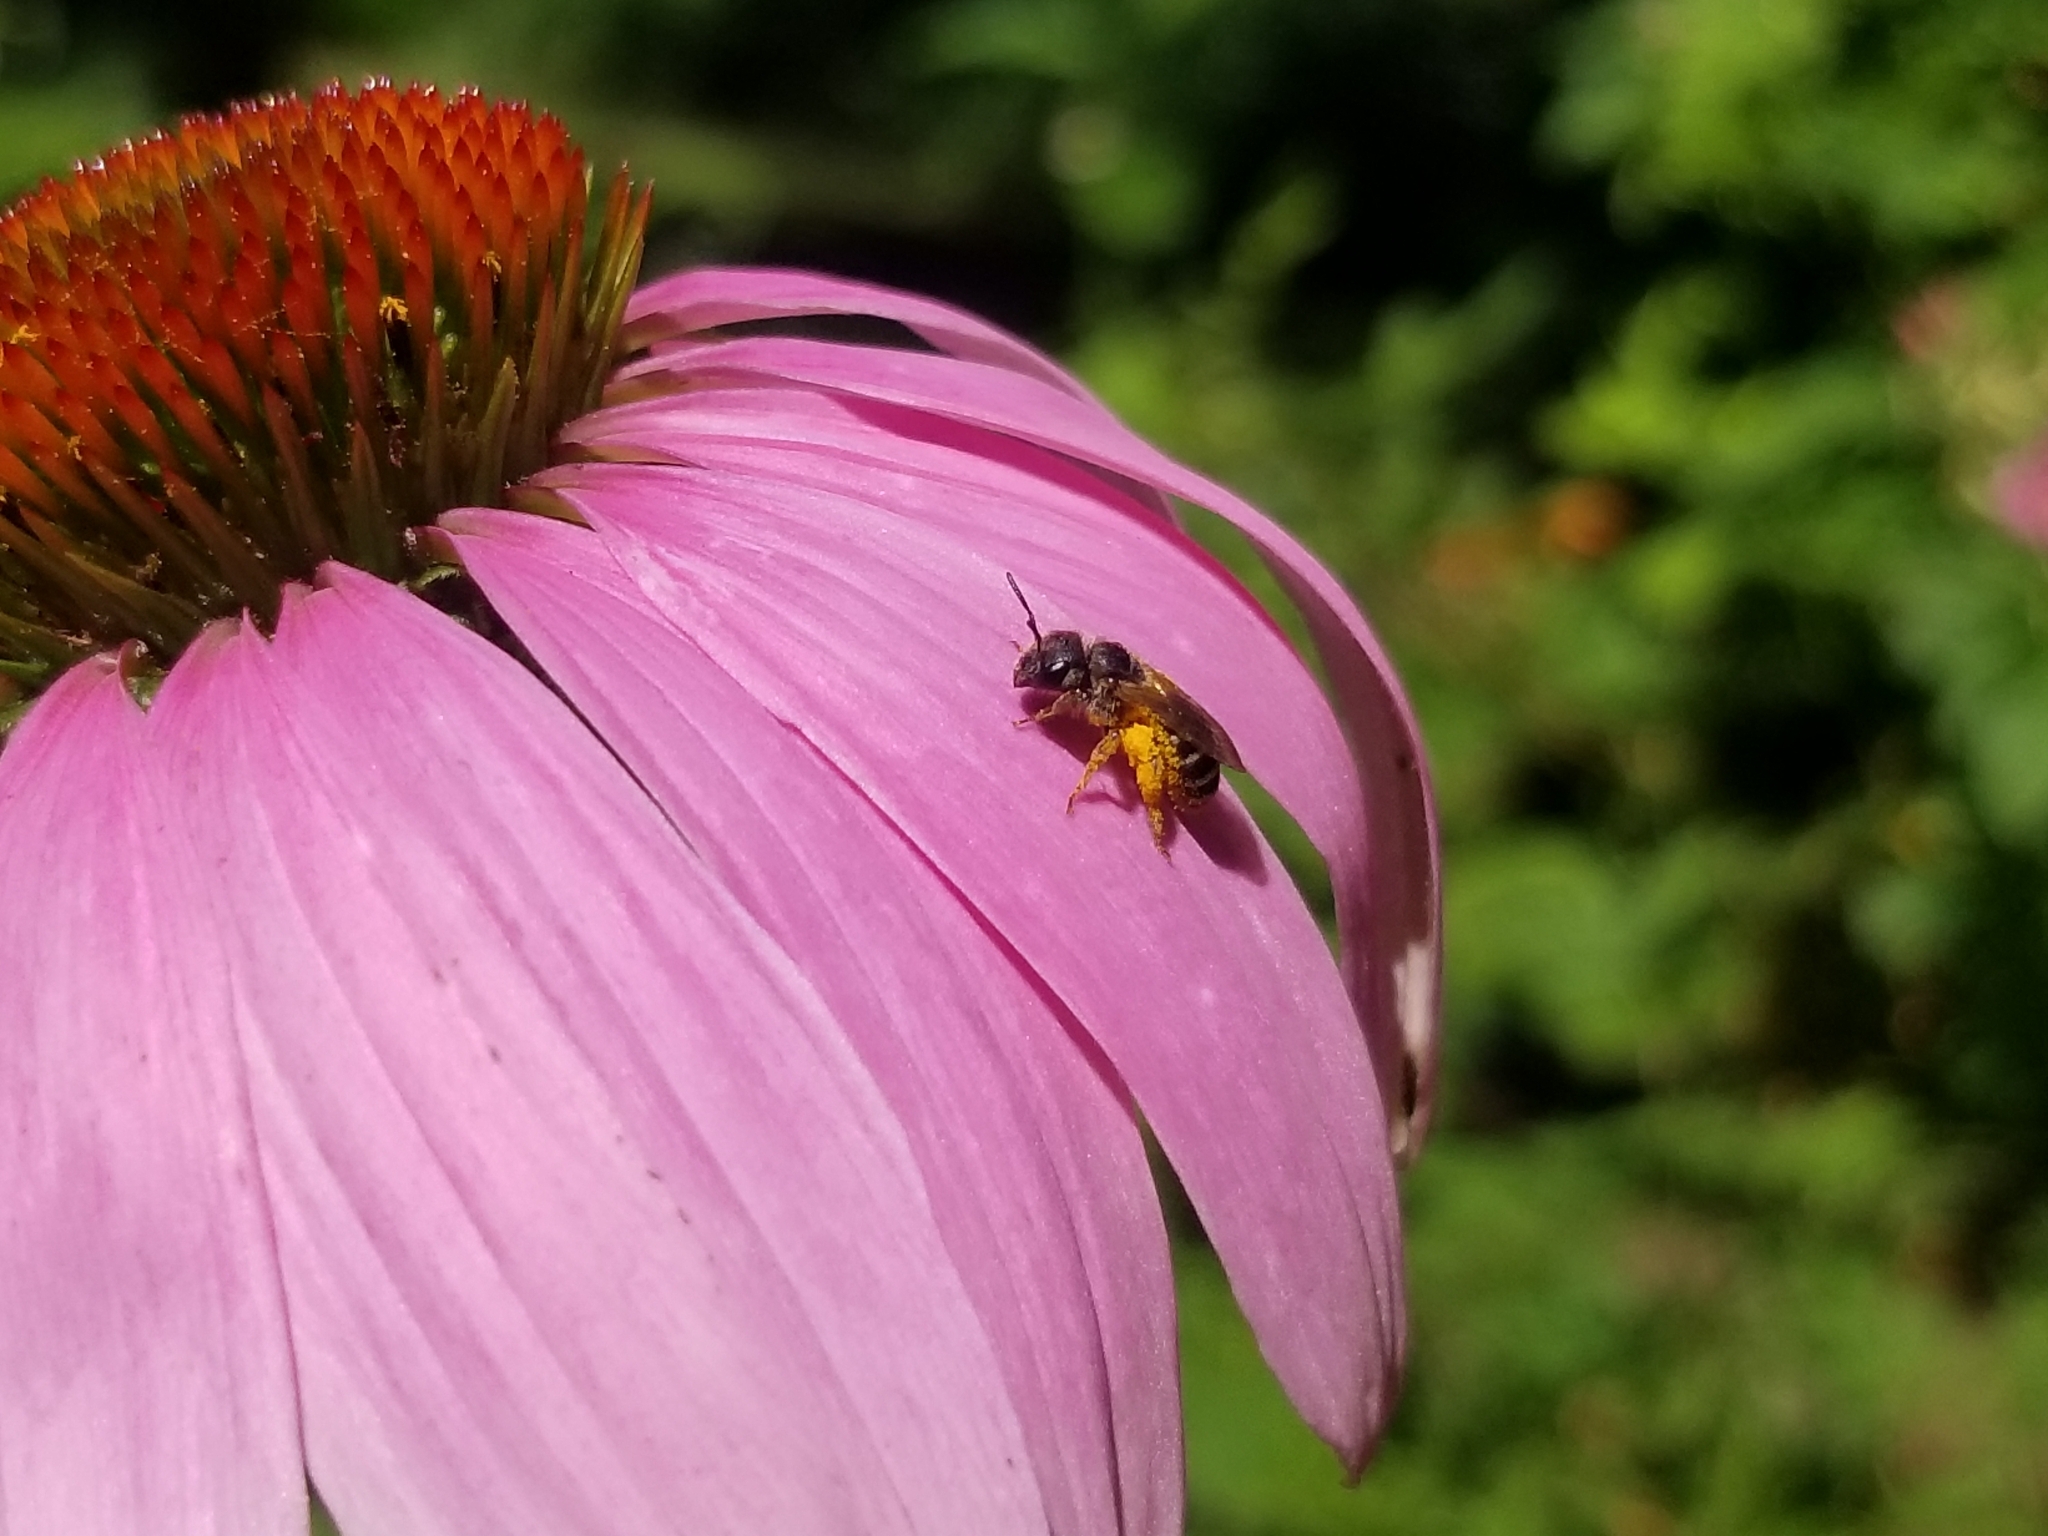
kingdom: Animalia
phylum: Arthropoda
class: Insecta
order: Hymenoptera
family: Halictidae
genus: Halictus
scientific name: Halictus ligatus
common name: Ligated furrow bee
